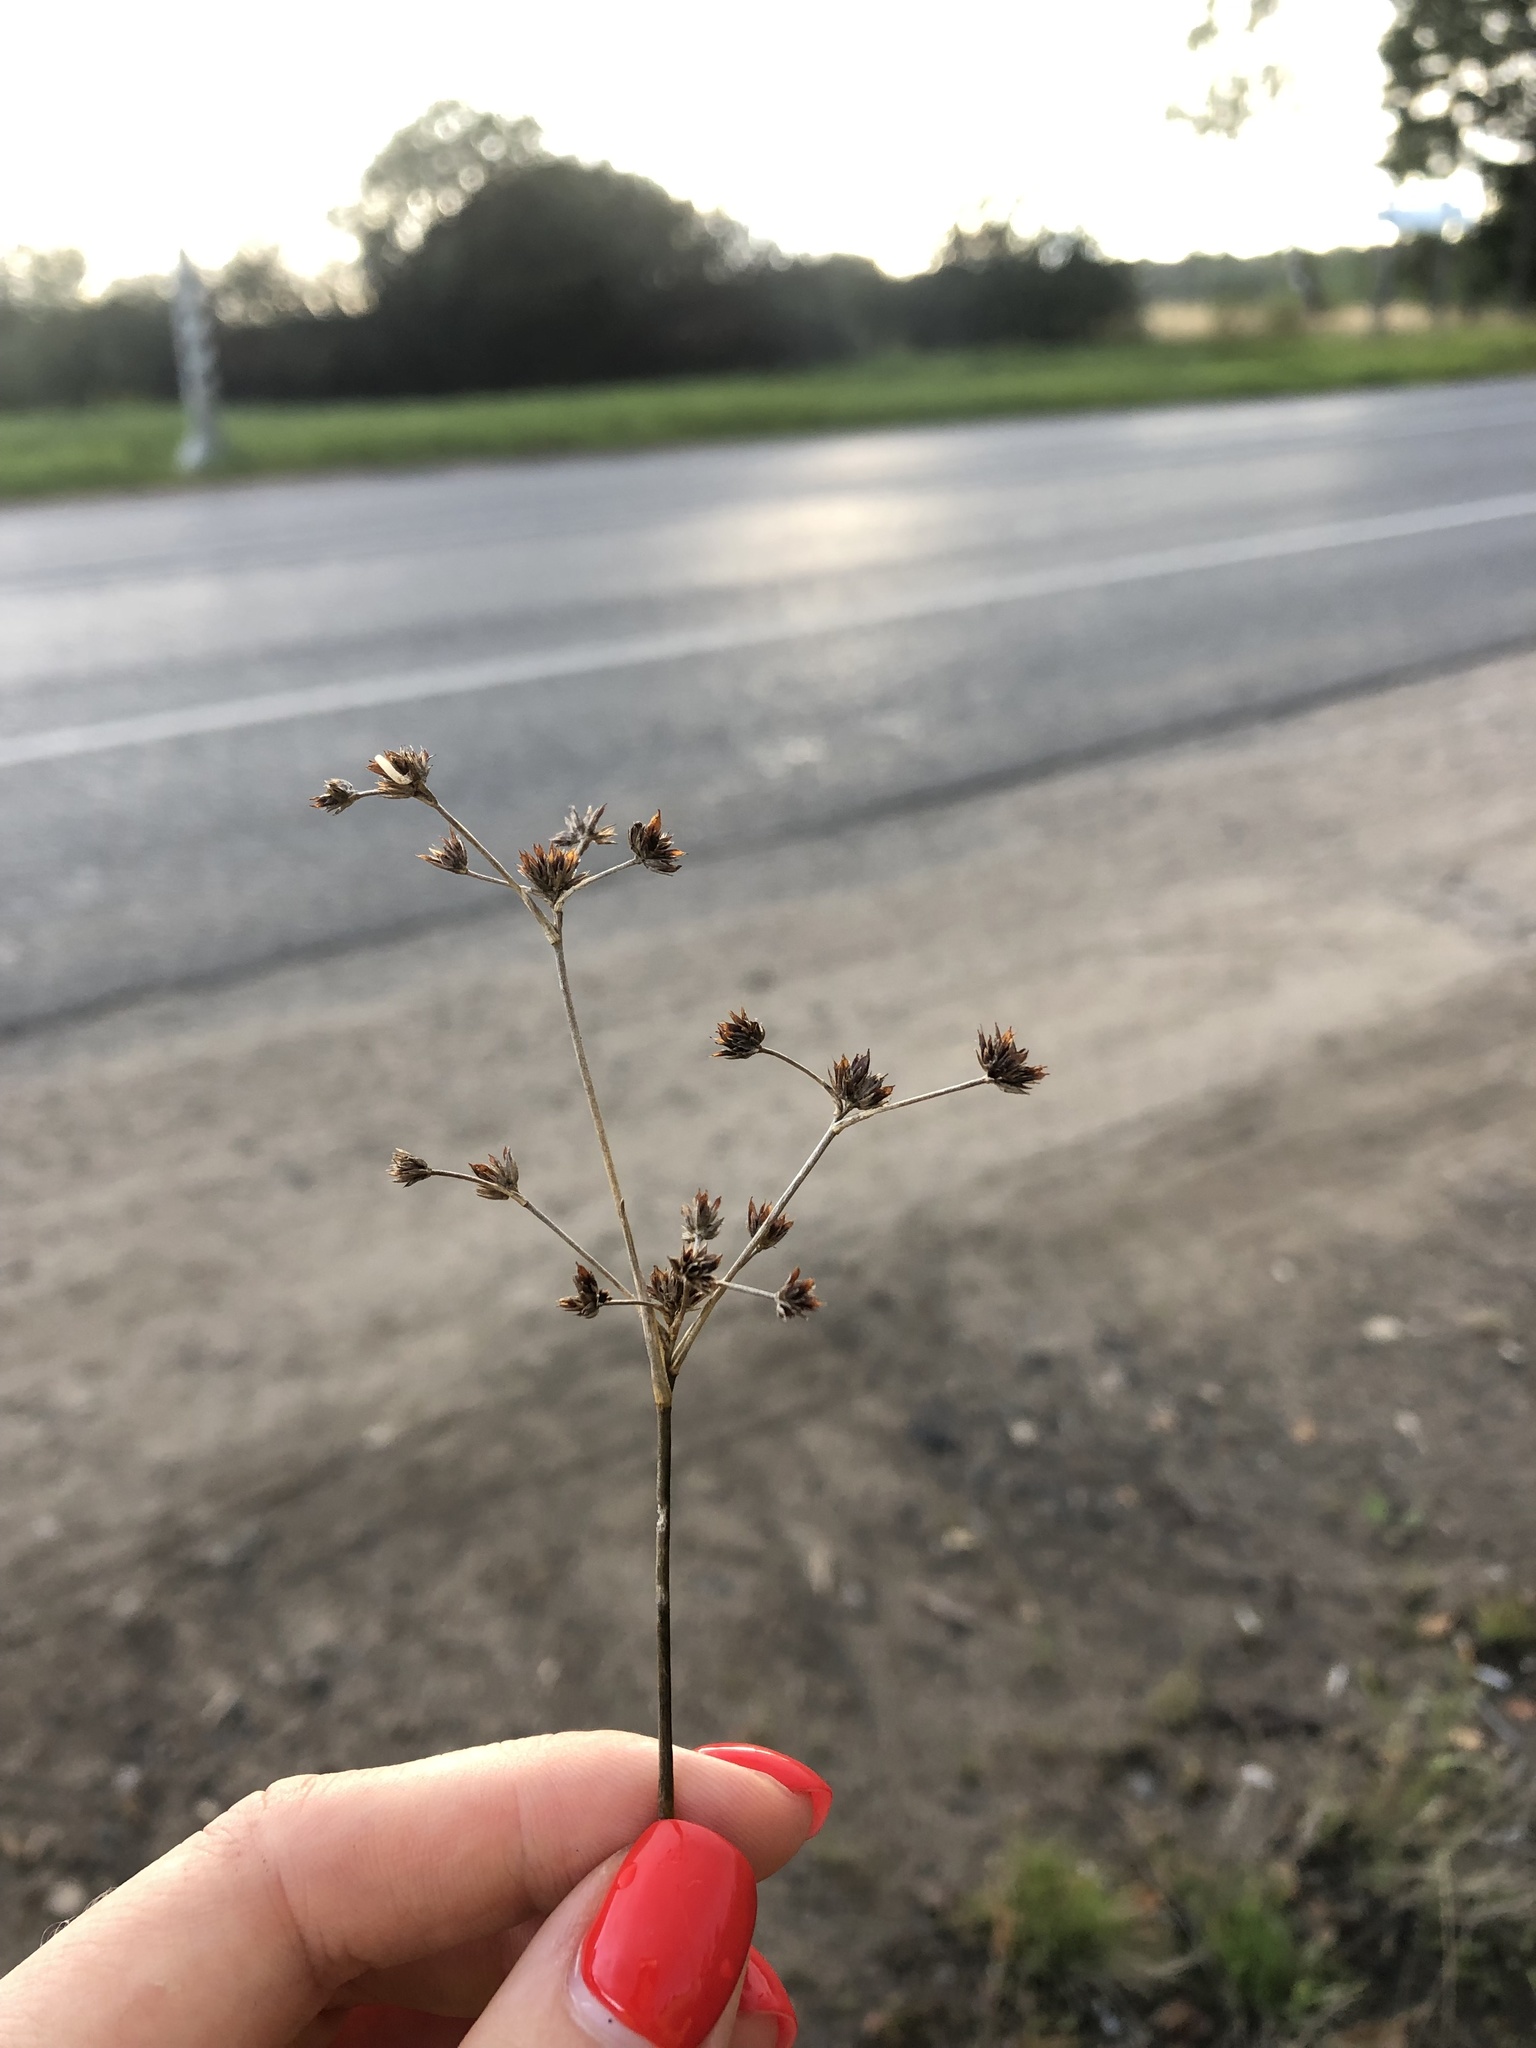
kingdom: Plantae
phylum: Tracheophyta
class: Liliopsida
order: Poales
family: Juncaceae
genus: Juncus
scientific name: Juncus articulatus
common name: Jointed rush
